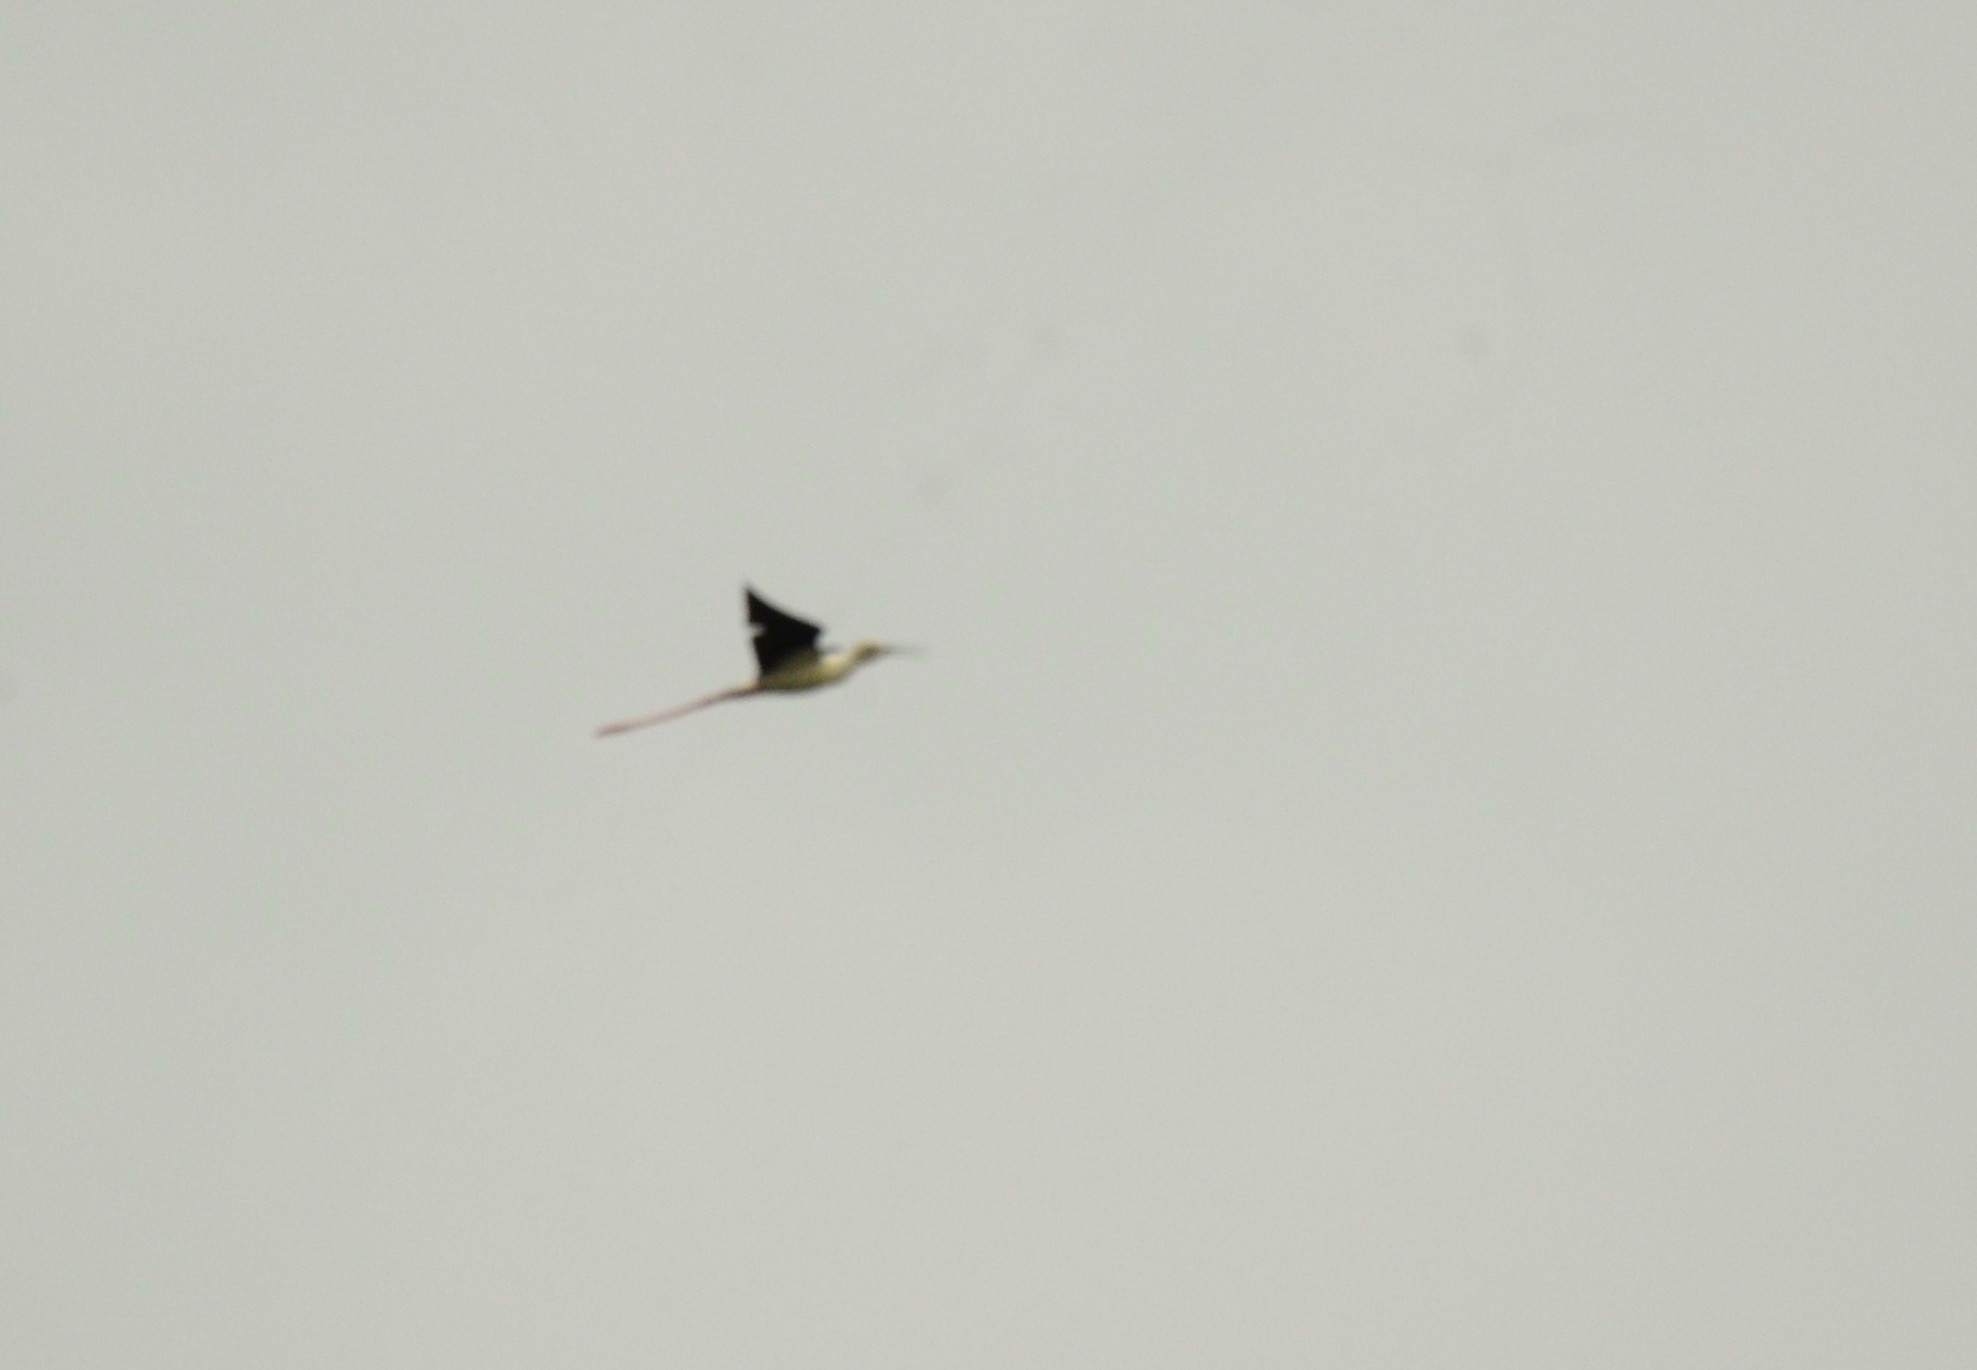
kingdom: Animalia
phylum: Chordata
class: Aves
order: Charadriiformes
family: Recurvirostridae
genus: Himantopus
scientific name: Himantopus himantopus
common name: Black-winged stilt
